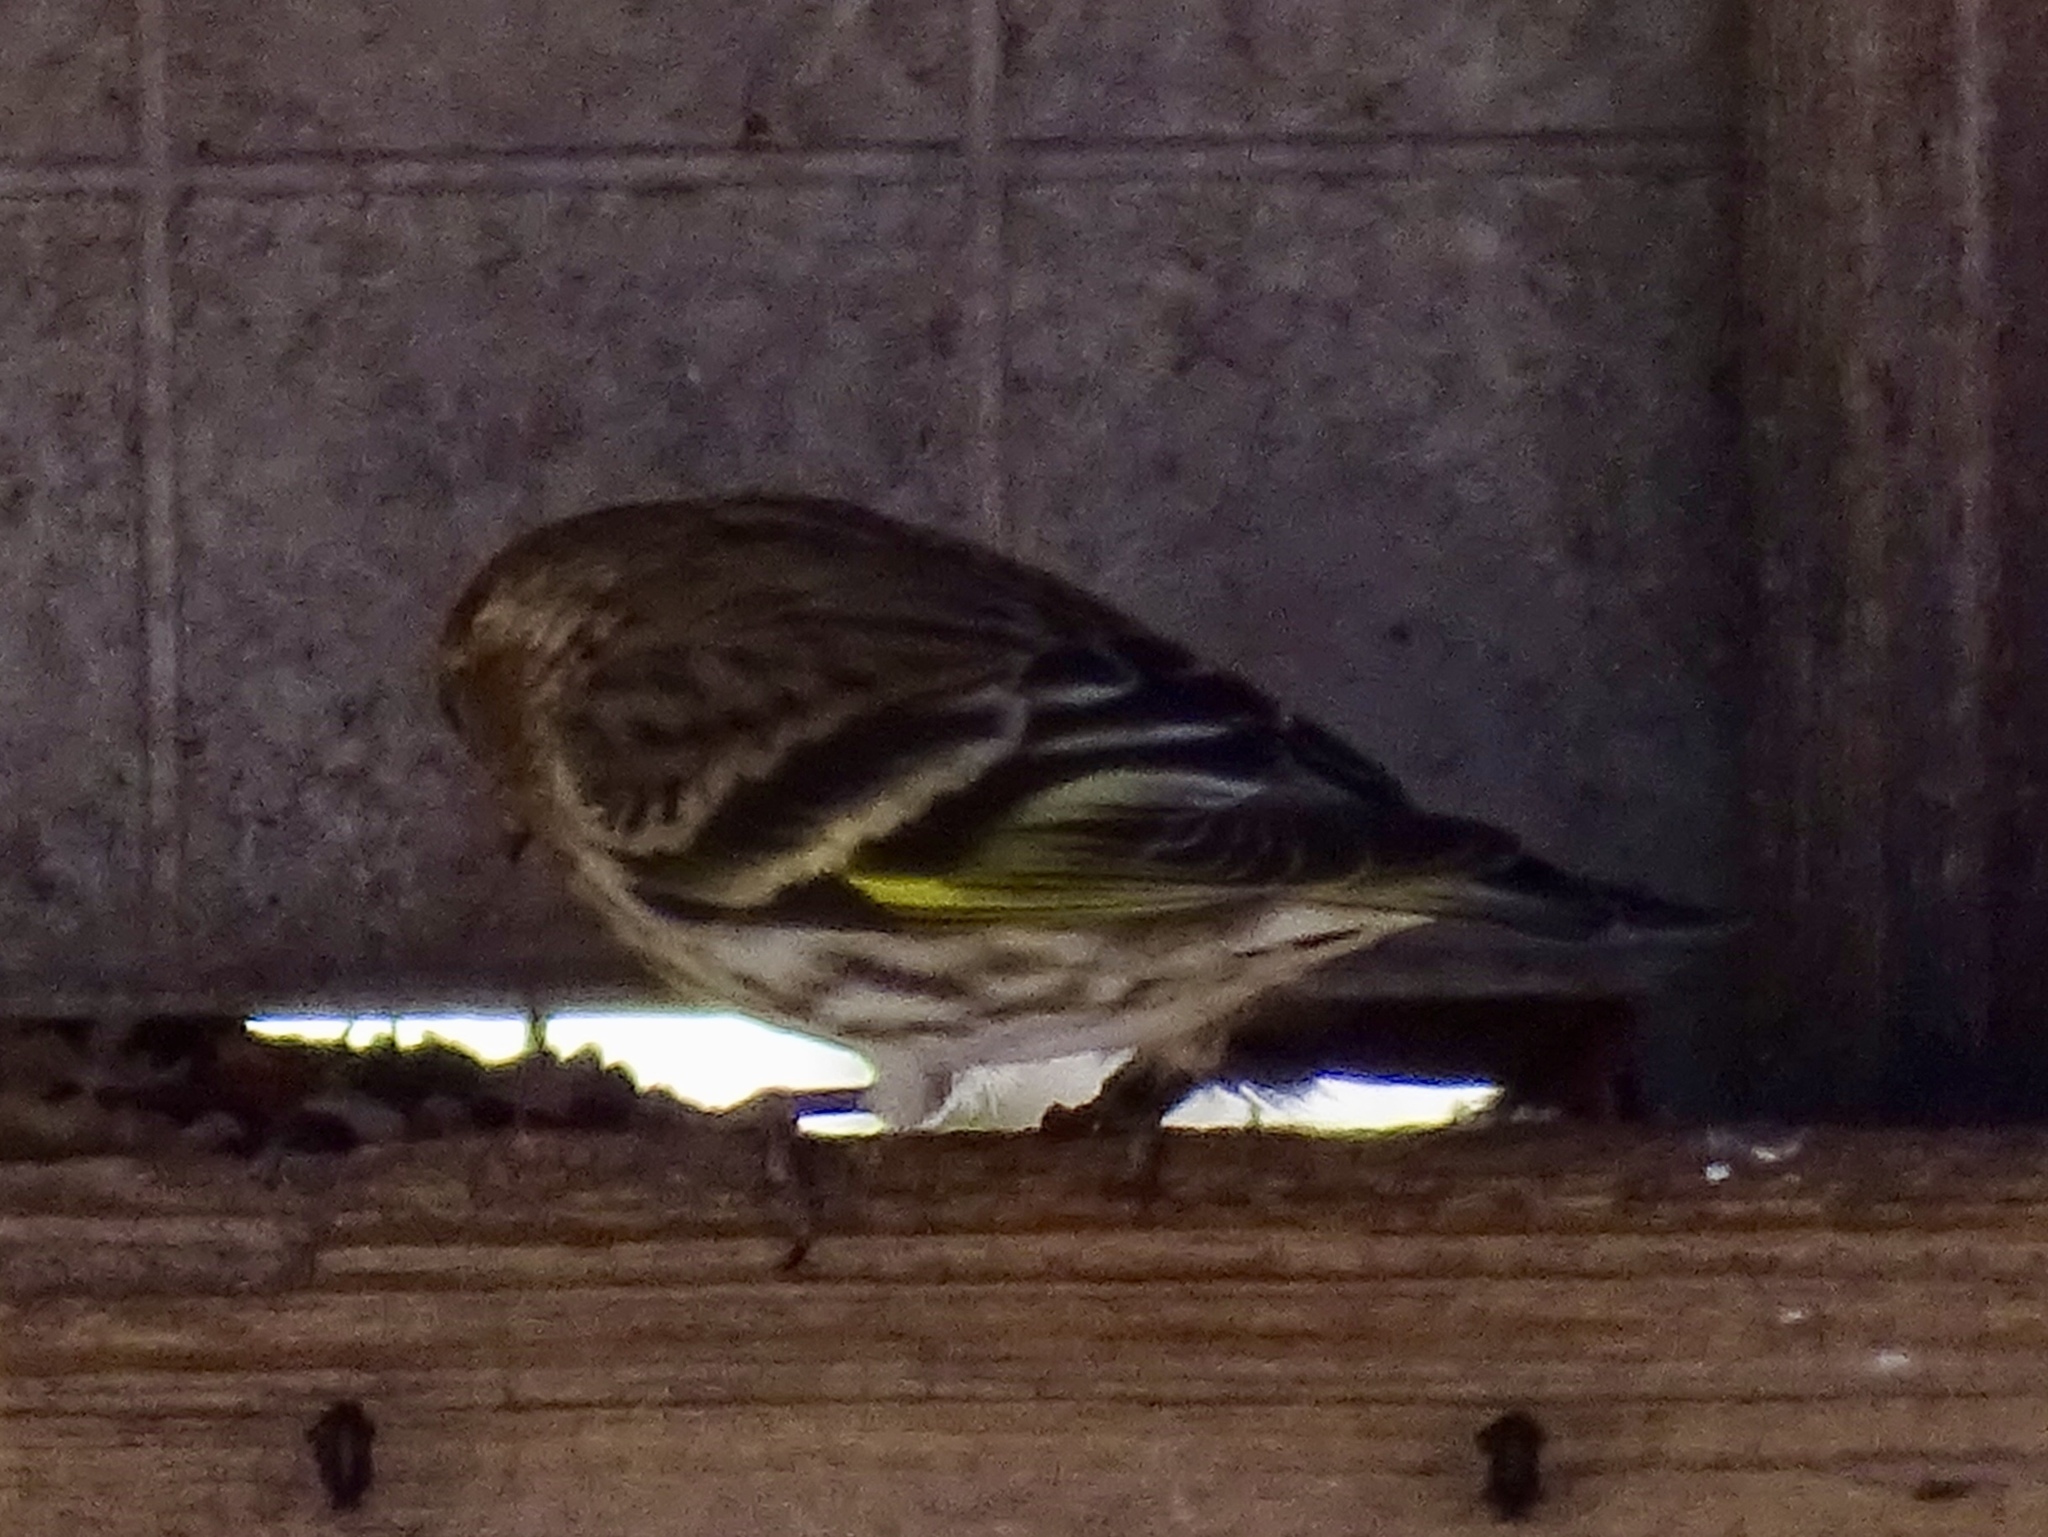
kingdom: Animalia
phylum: Chordata
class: Aves
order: Passeriformes
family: Fringillidae
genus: Spinus
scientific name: Spinus pinus
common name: Pine siskin
